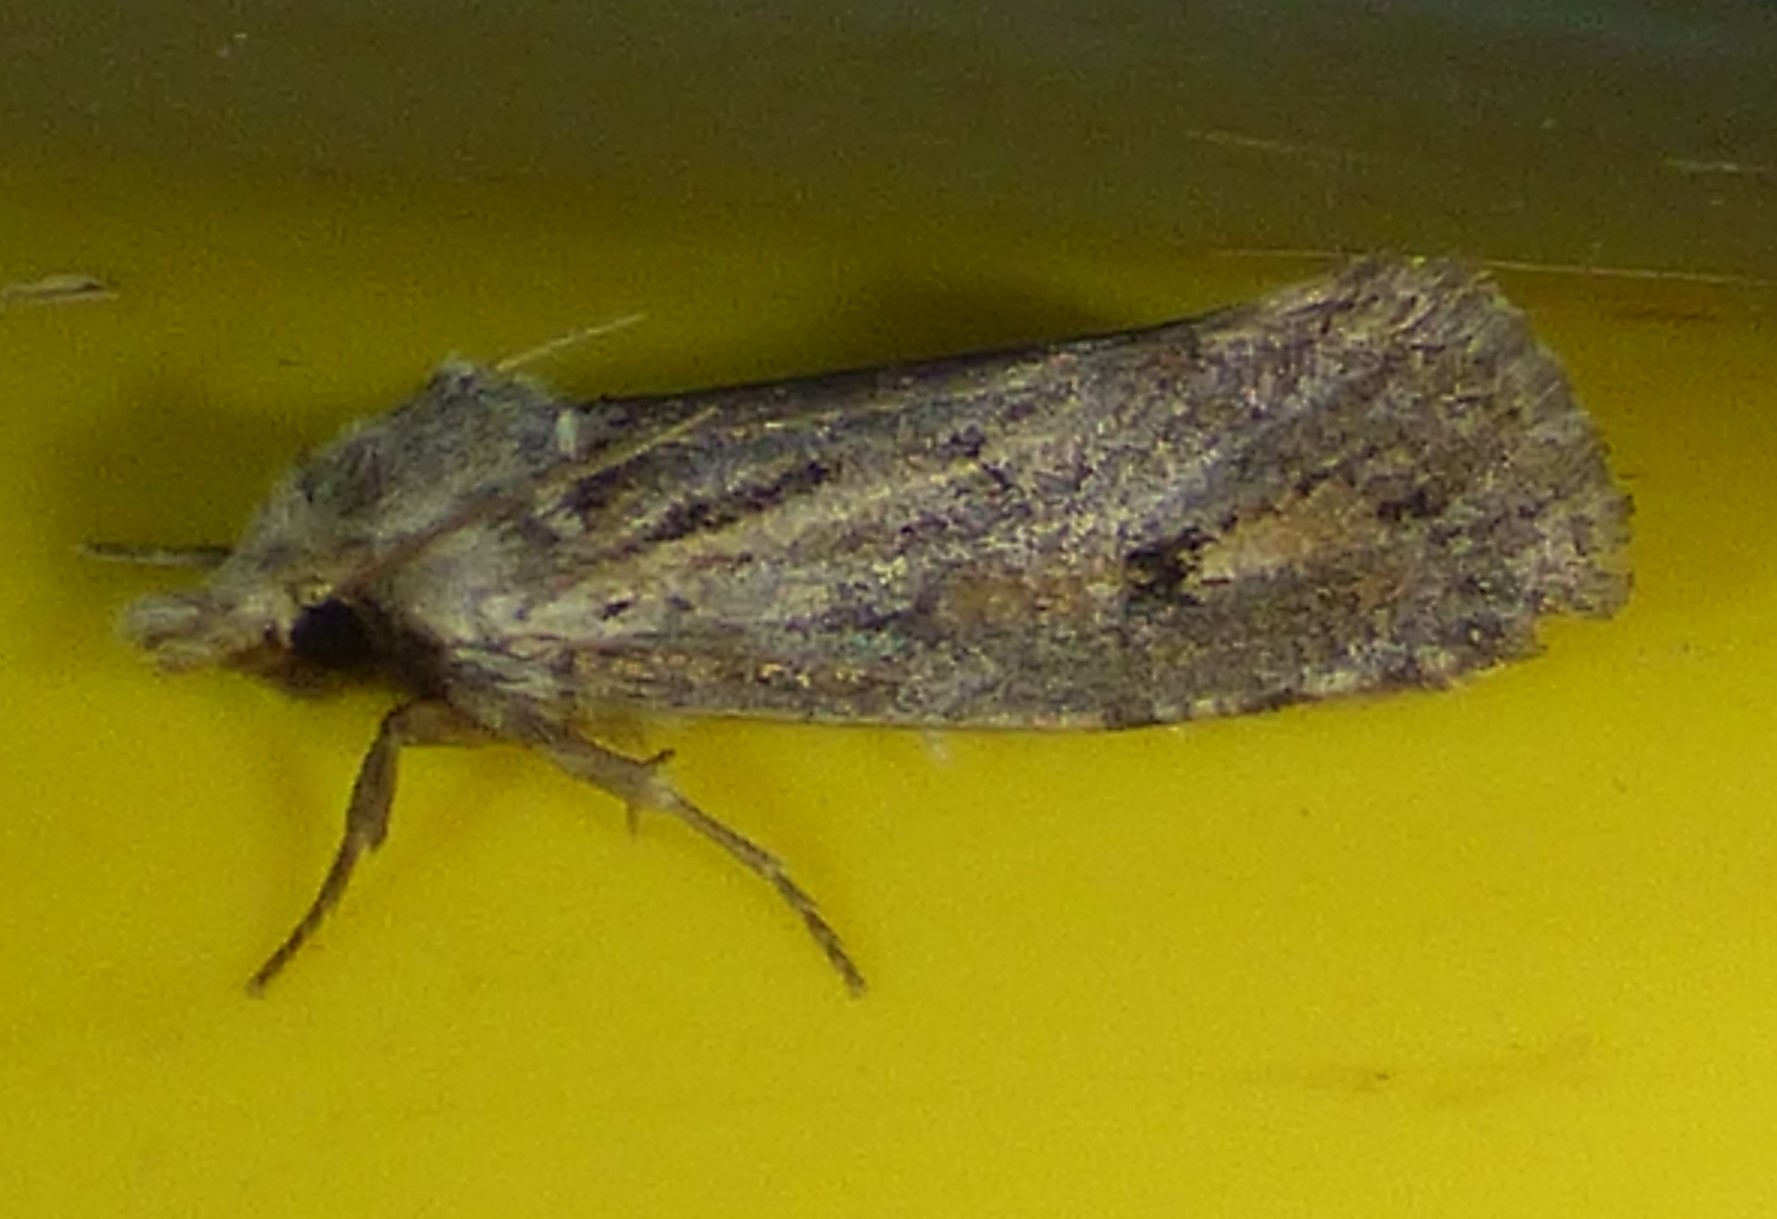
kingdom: Animalia
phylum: Arthropoda
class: Insecta
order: Lepidoptera
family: Tineidae
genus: Acrolophus
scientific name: Acrolophus popeanella
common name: Clemens' grass tubeworm moth
